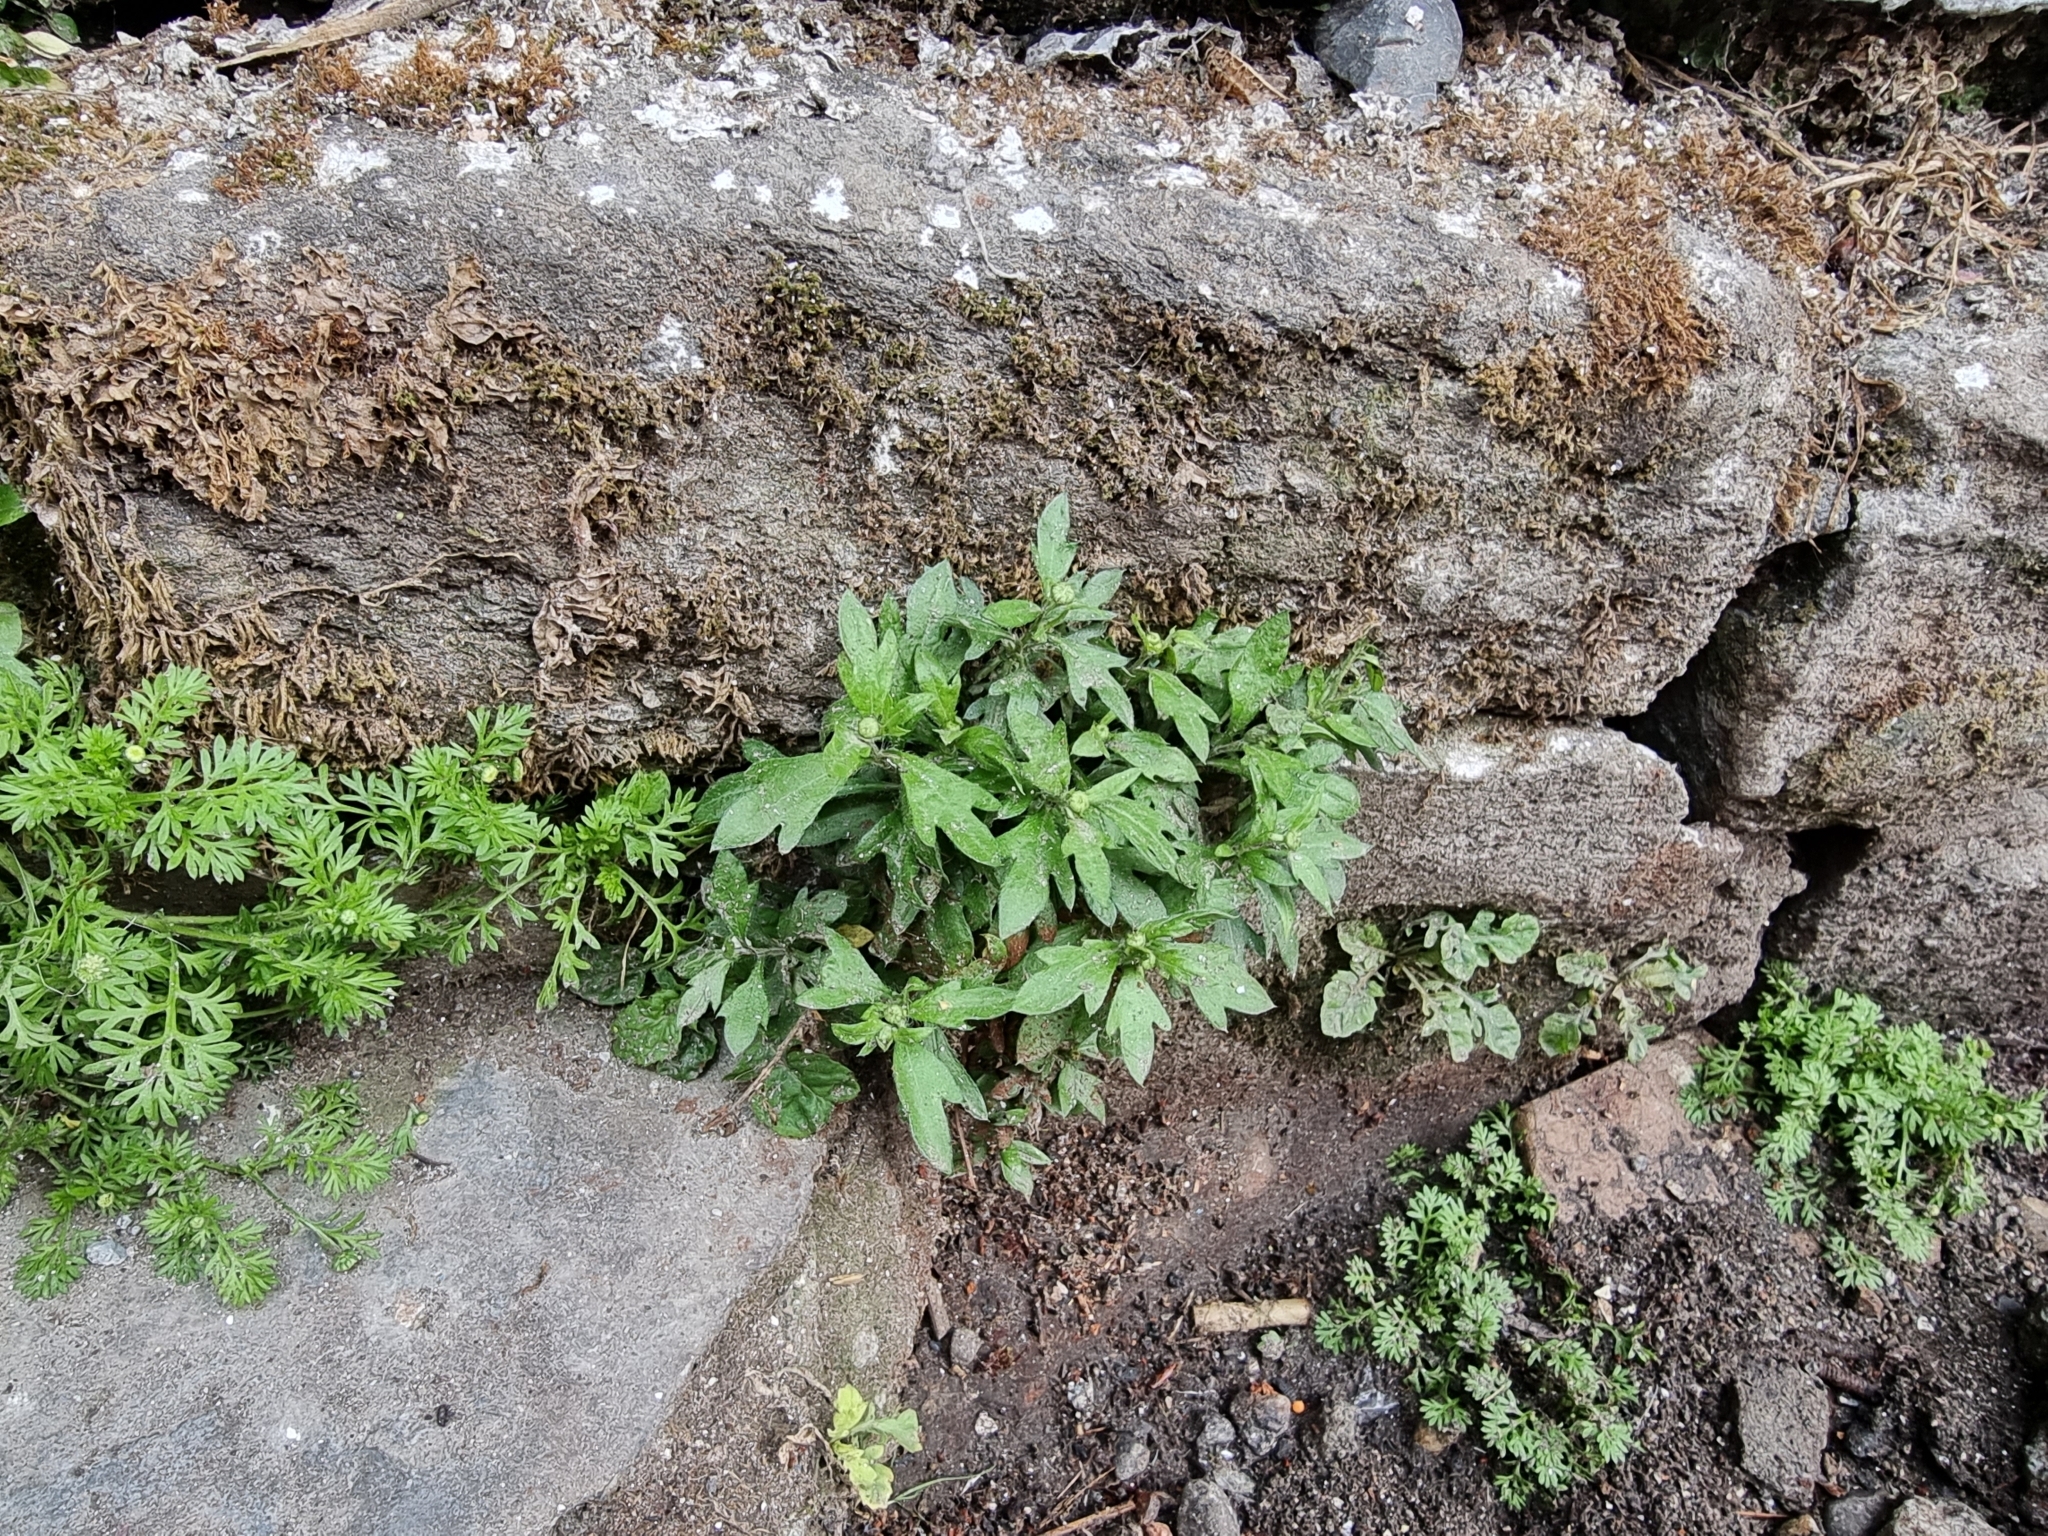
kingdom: Plantae
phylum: Tracheophyta
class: Magnoliopsida
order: Asterales
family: Asteraceae
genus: Erigeron
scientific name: Erigeron karvinskianus
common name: Mexican fleabane
